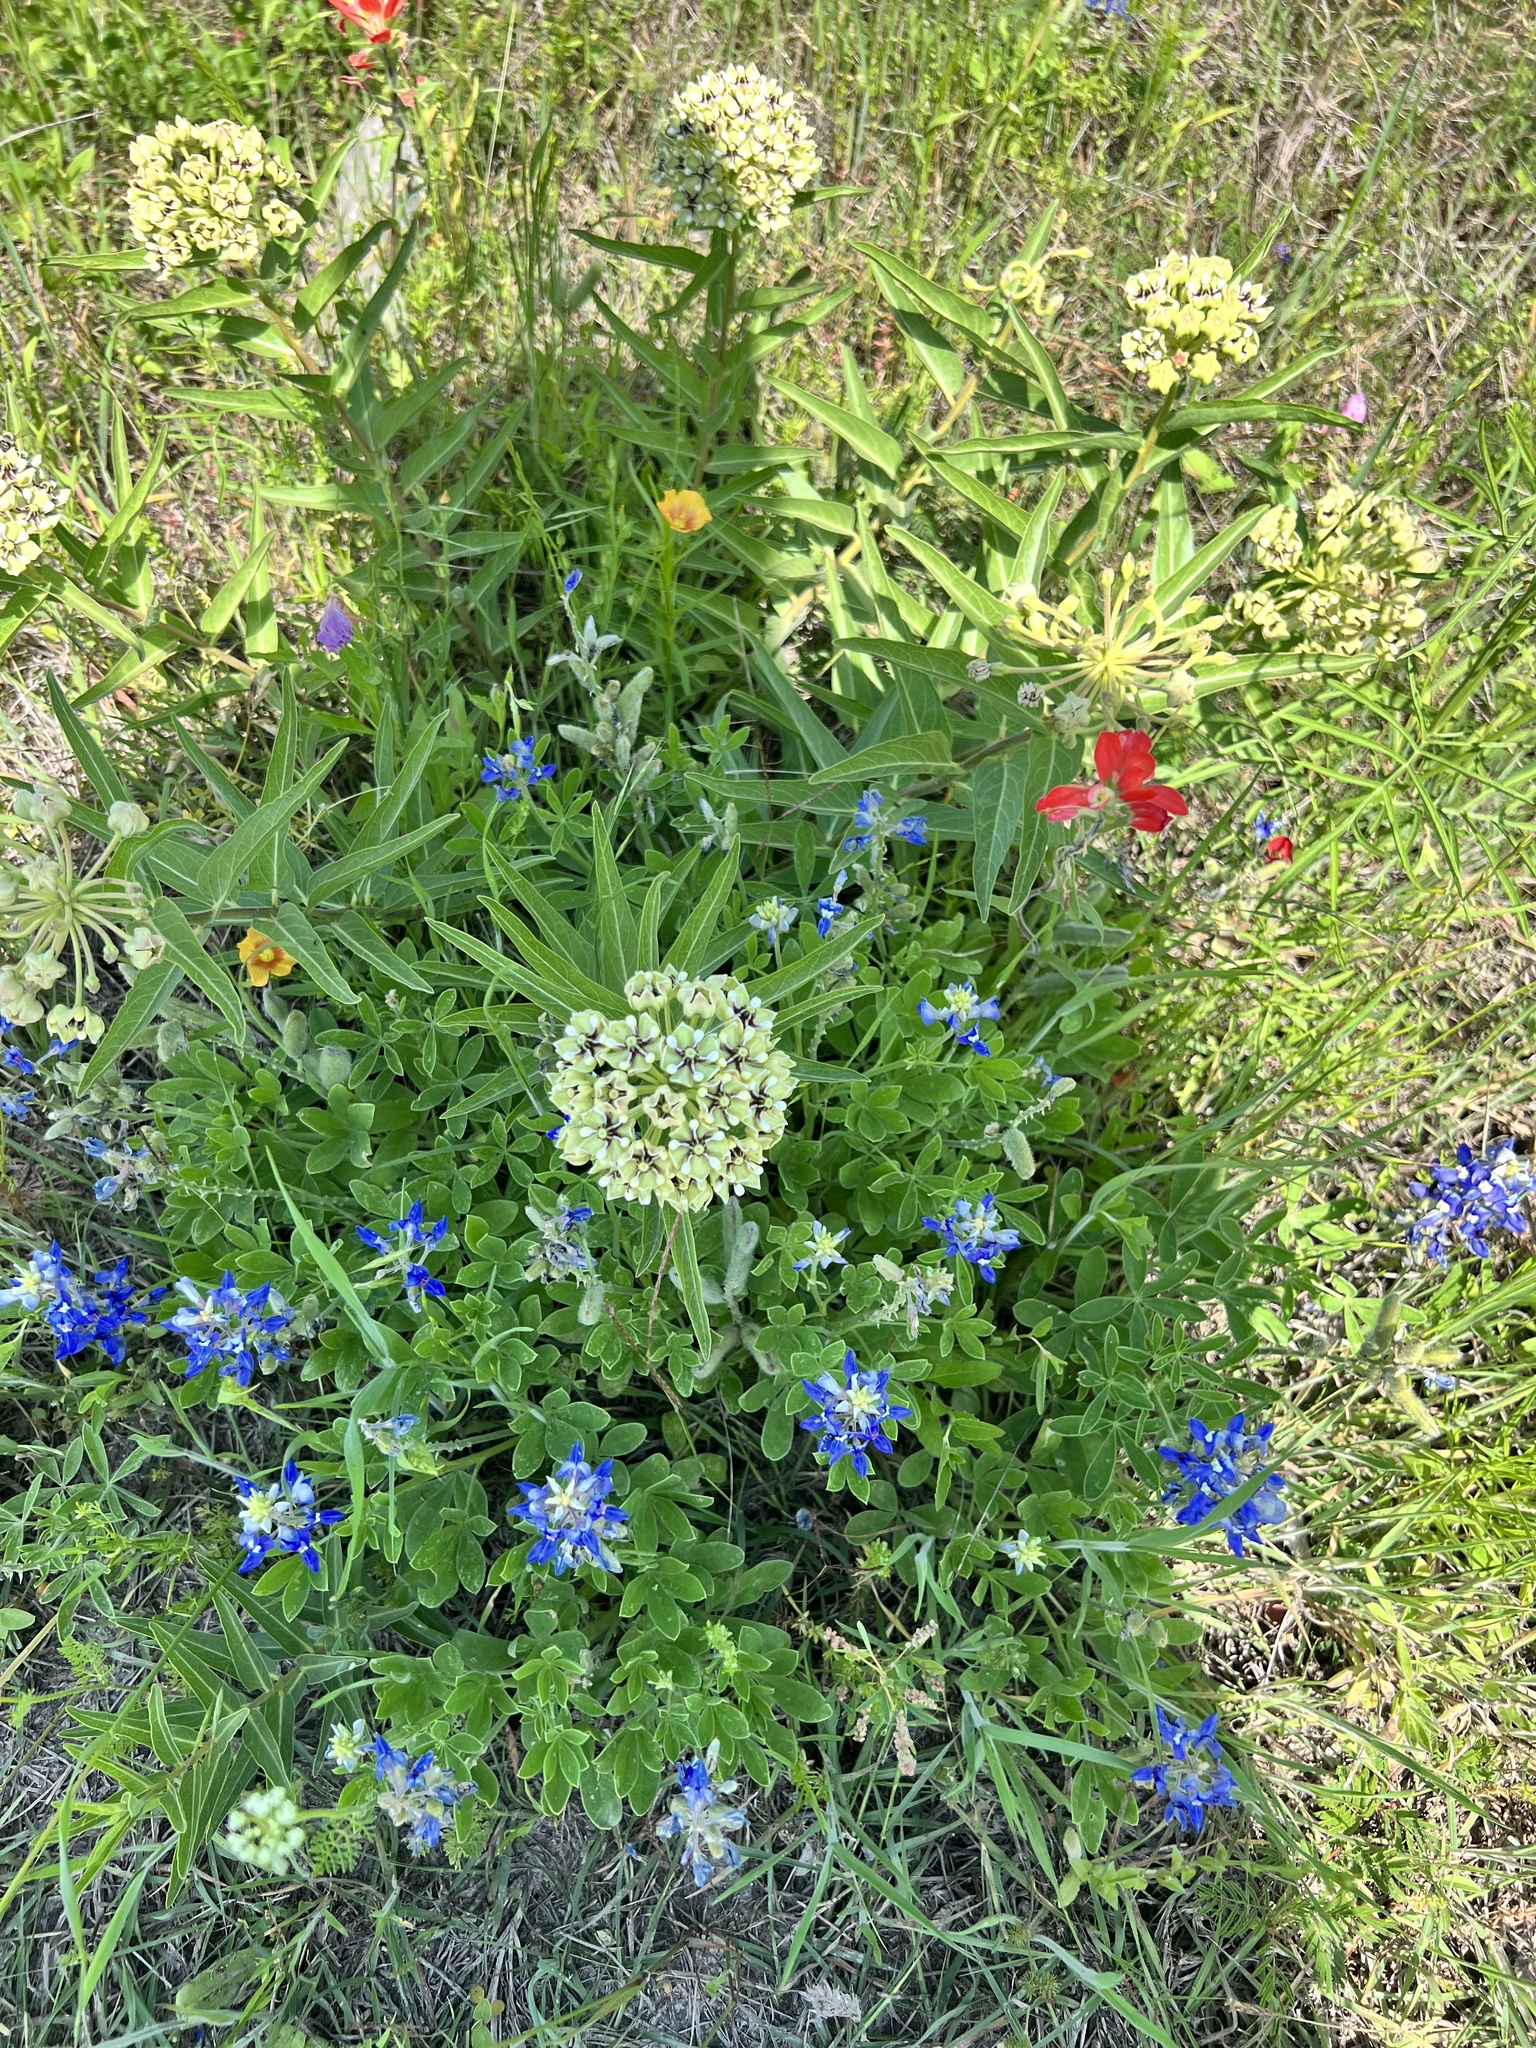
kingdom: Plantae
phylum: Tracheophyta
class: Magnoliopsida
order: Gentianales
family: Apocynaceae
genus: Asclepias
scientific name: Asclepias asperula
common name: Antelope horns
